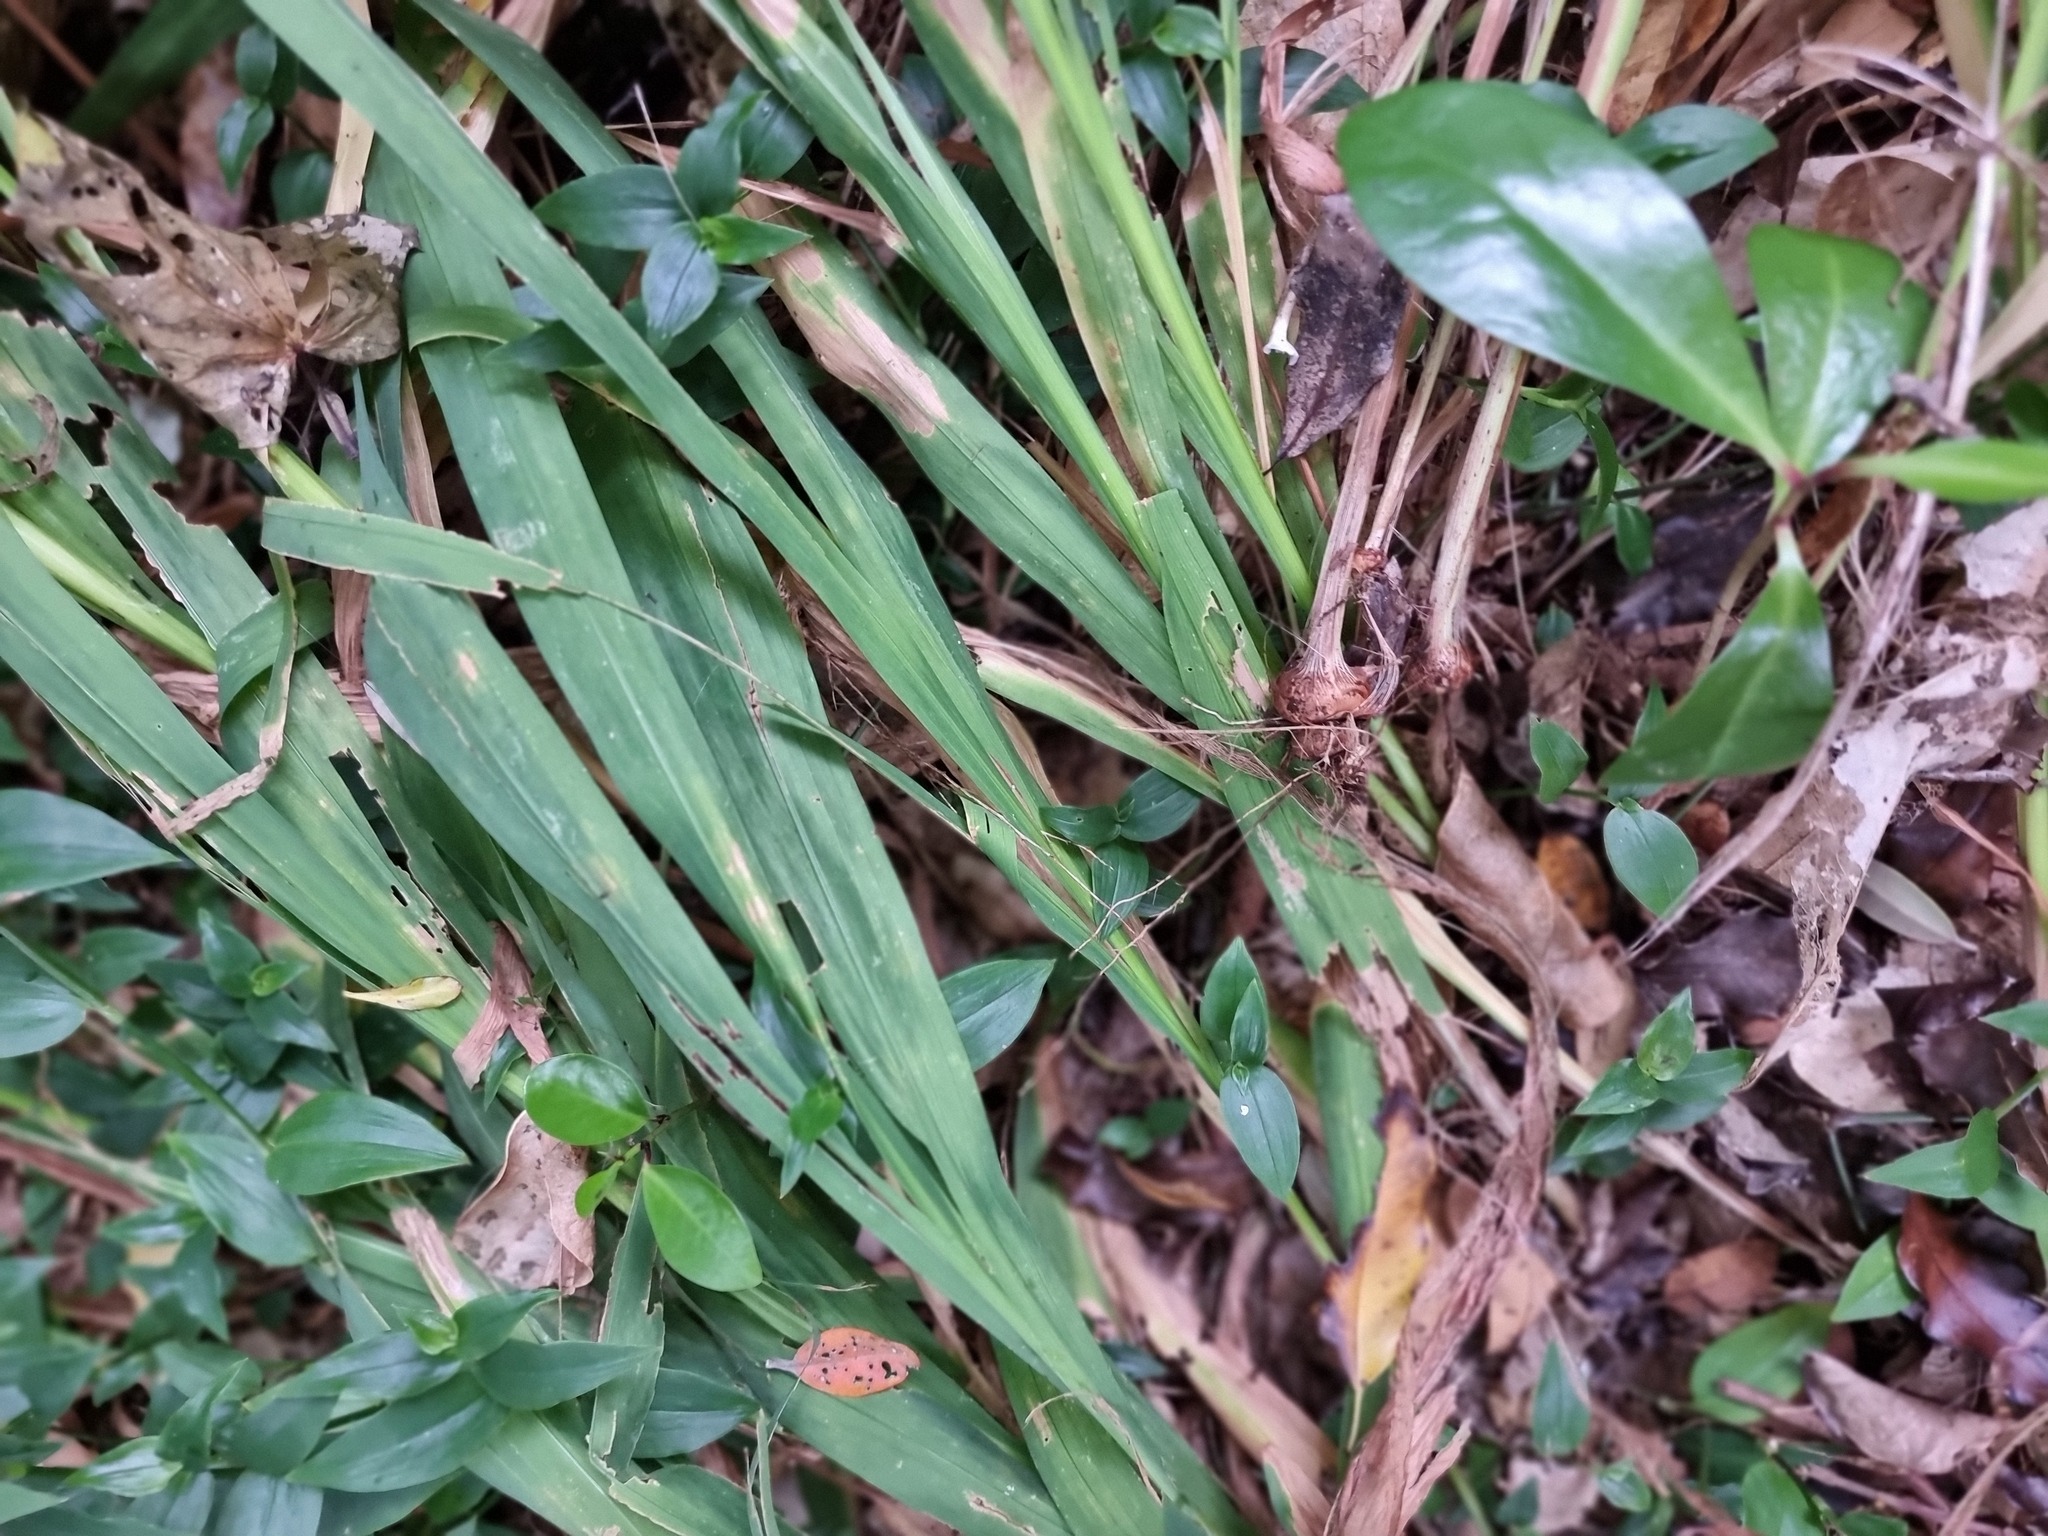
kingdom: Plantae
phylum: Tracheophyta
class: Liliopsida
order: Asparagales
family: Iridaceae
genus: Crocosmia
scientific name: Crocosmia crocosmiiflora
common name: Montbretia
